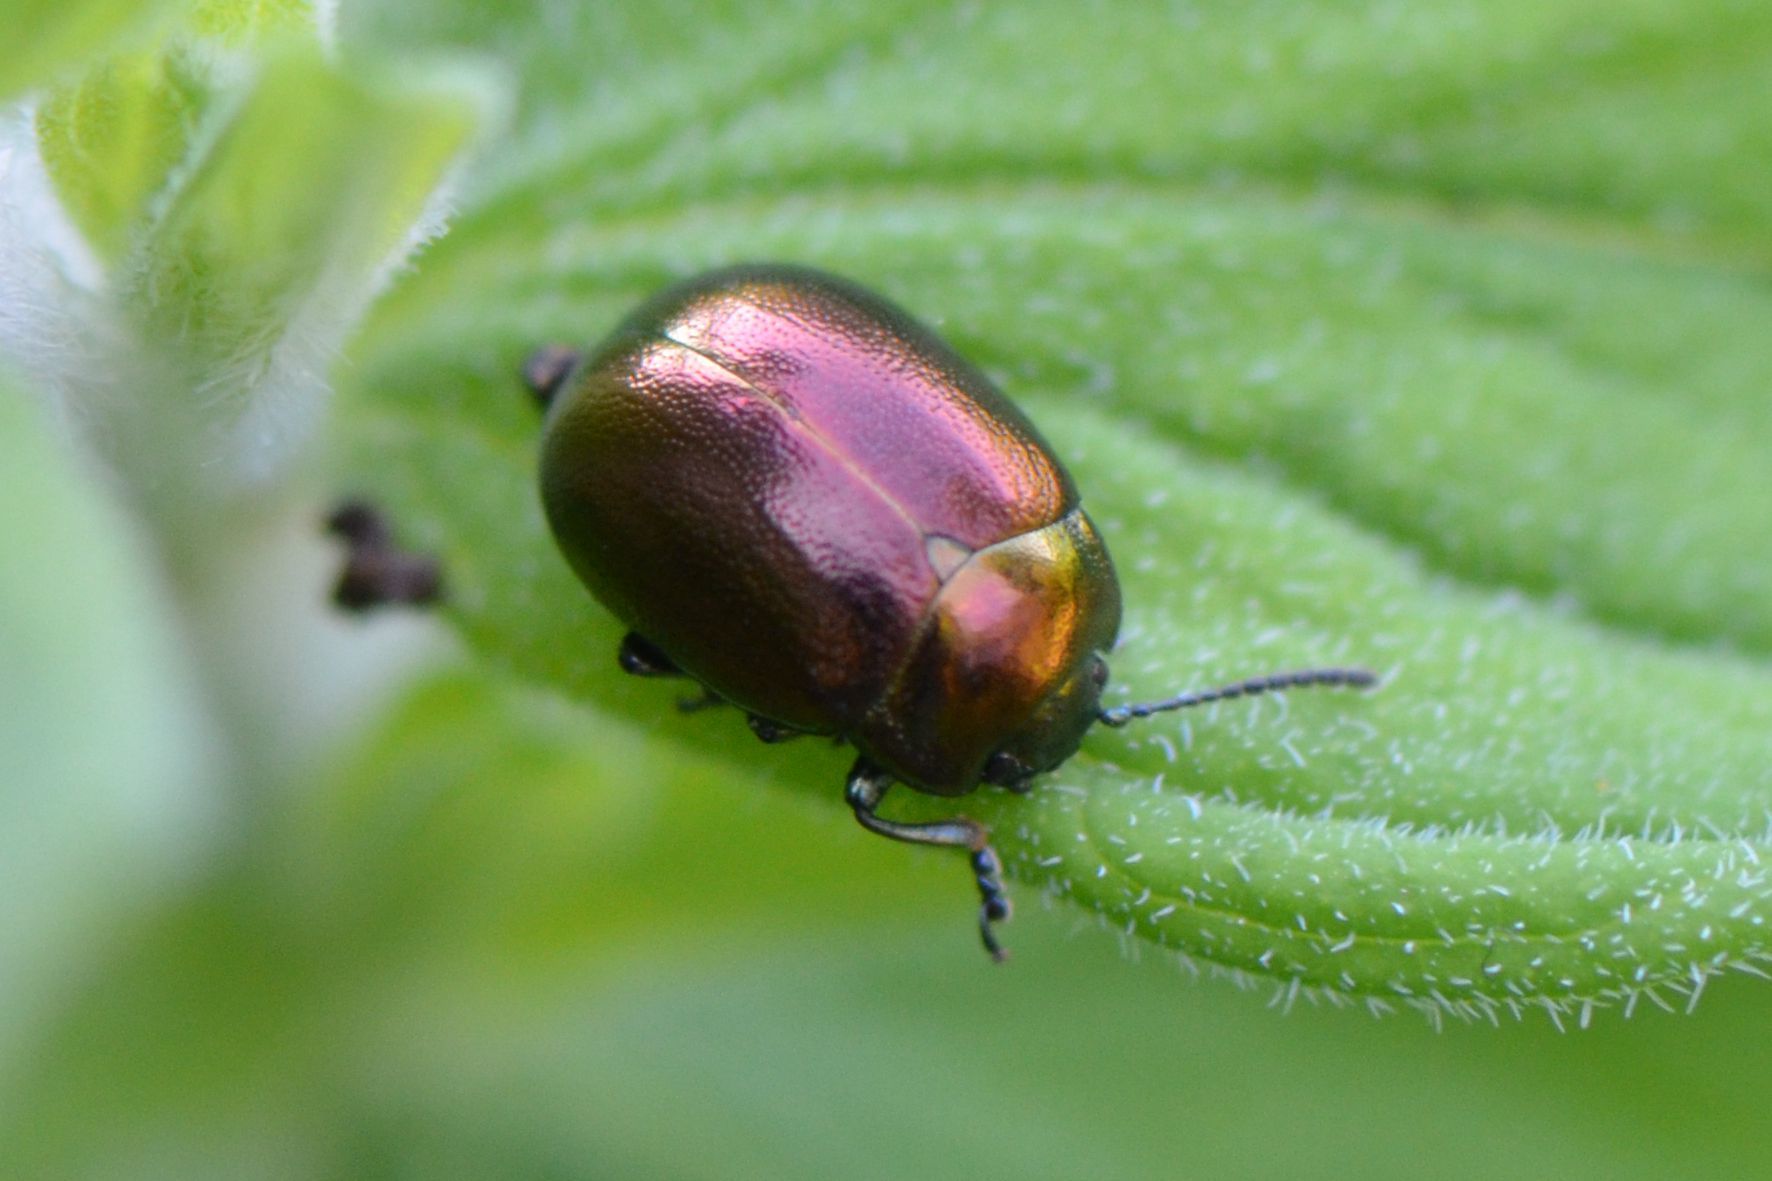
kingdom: Animalia
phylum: Arthropoda
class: Insecta
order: Coleoptera
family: Chrysomelidae
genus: Chrysolina
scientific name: Chrysolina varians
